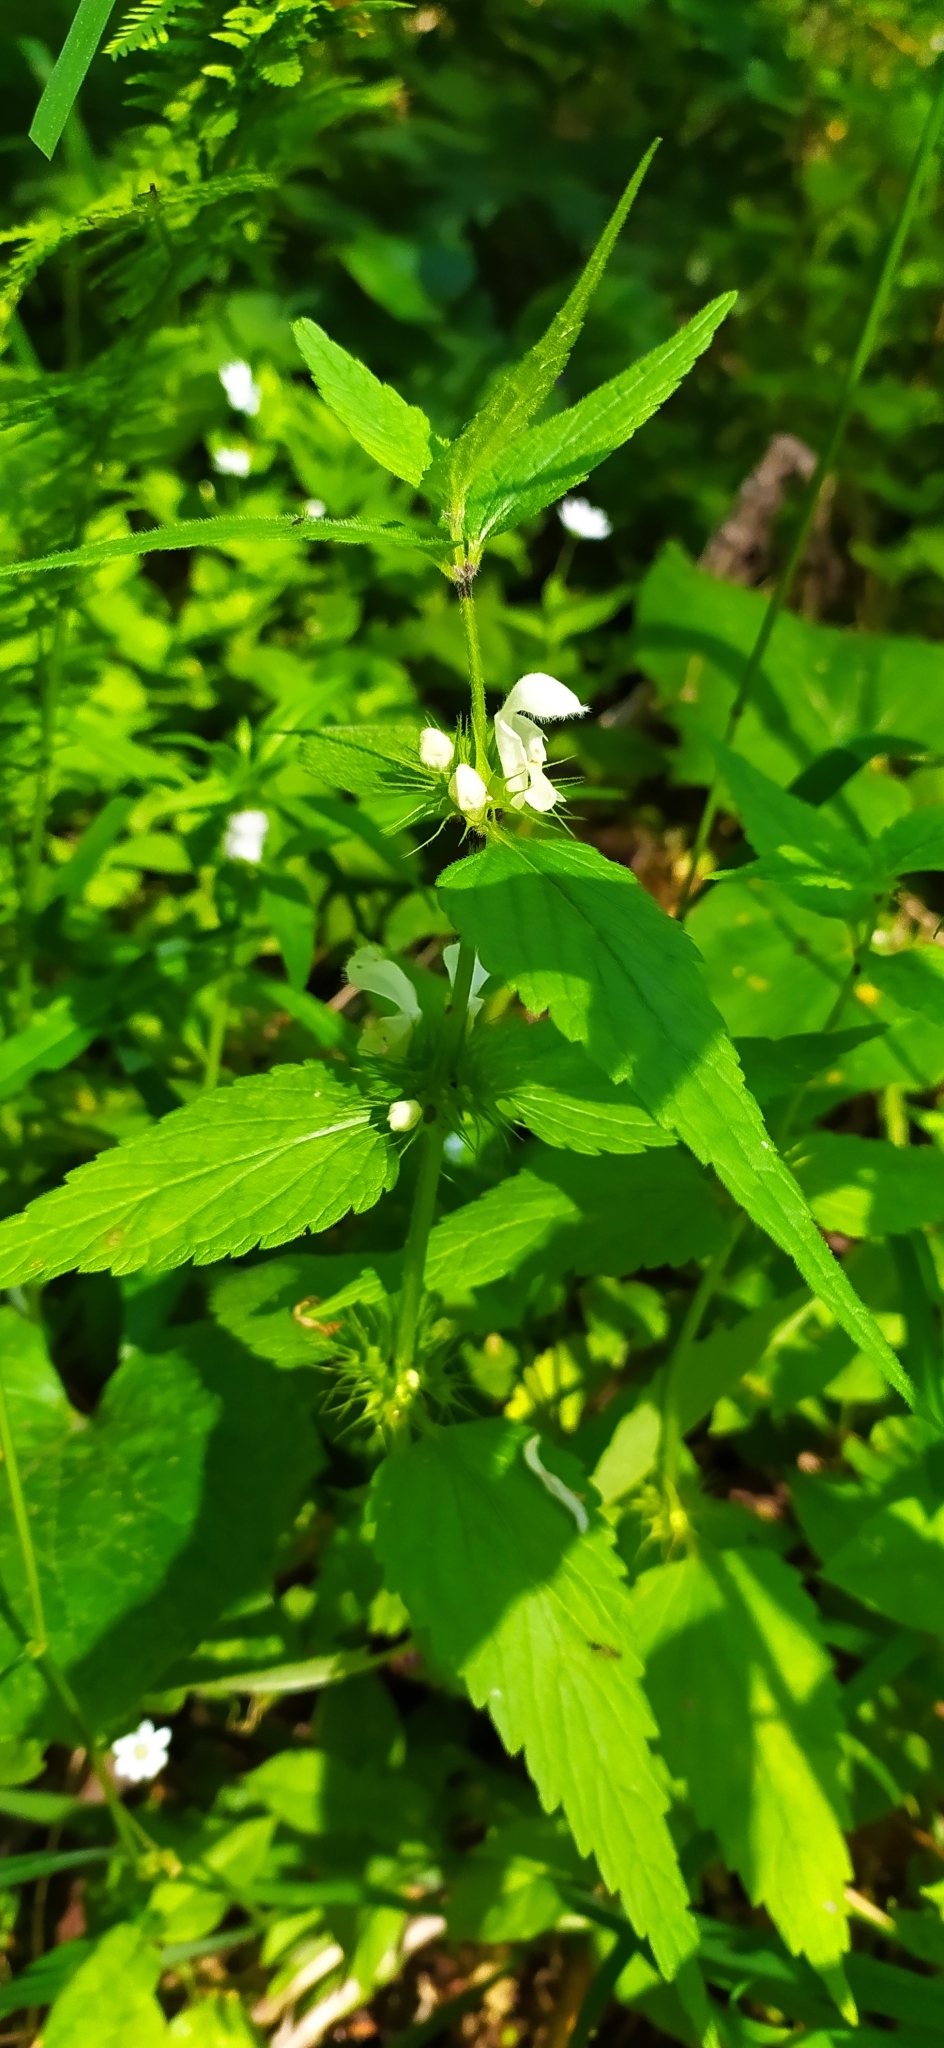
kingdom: Plantae
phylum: Tracheophyta
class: Magnoliopsida
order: Lamiales
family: Lamiaceae
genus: Lamium
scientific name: Lamium album
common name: White dead-nettle
